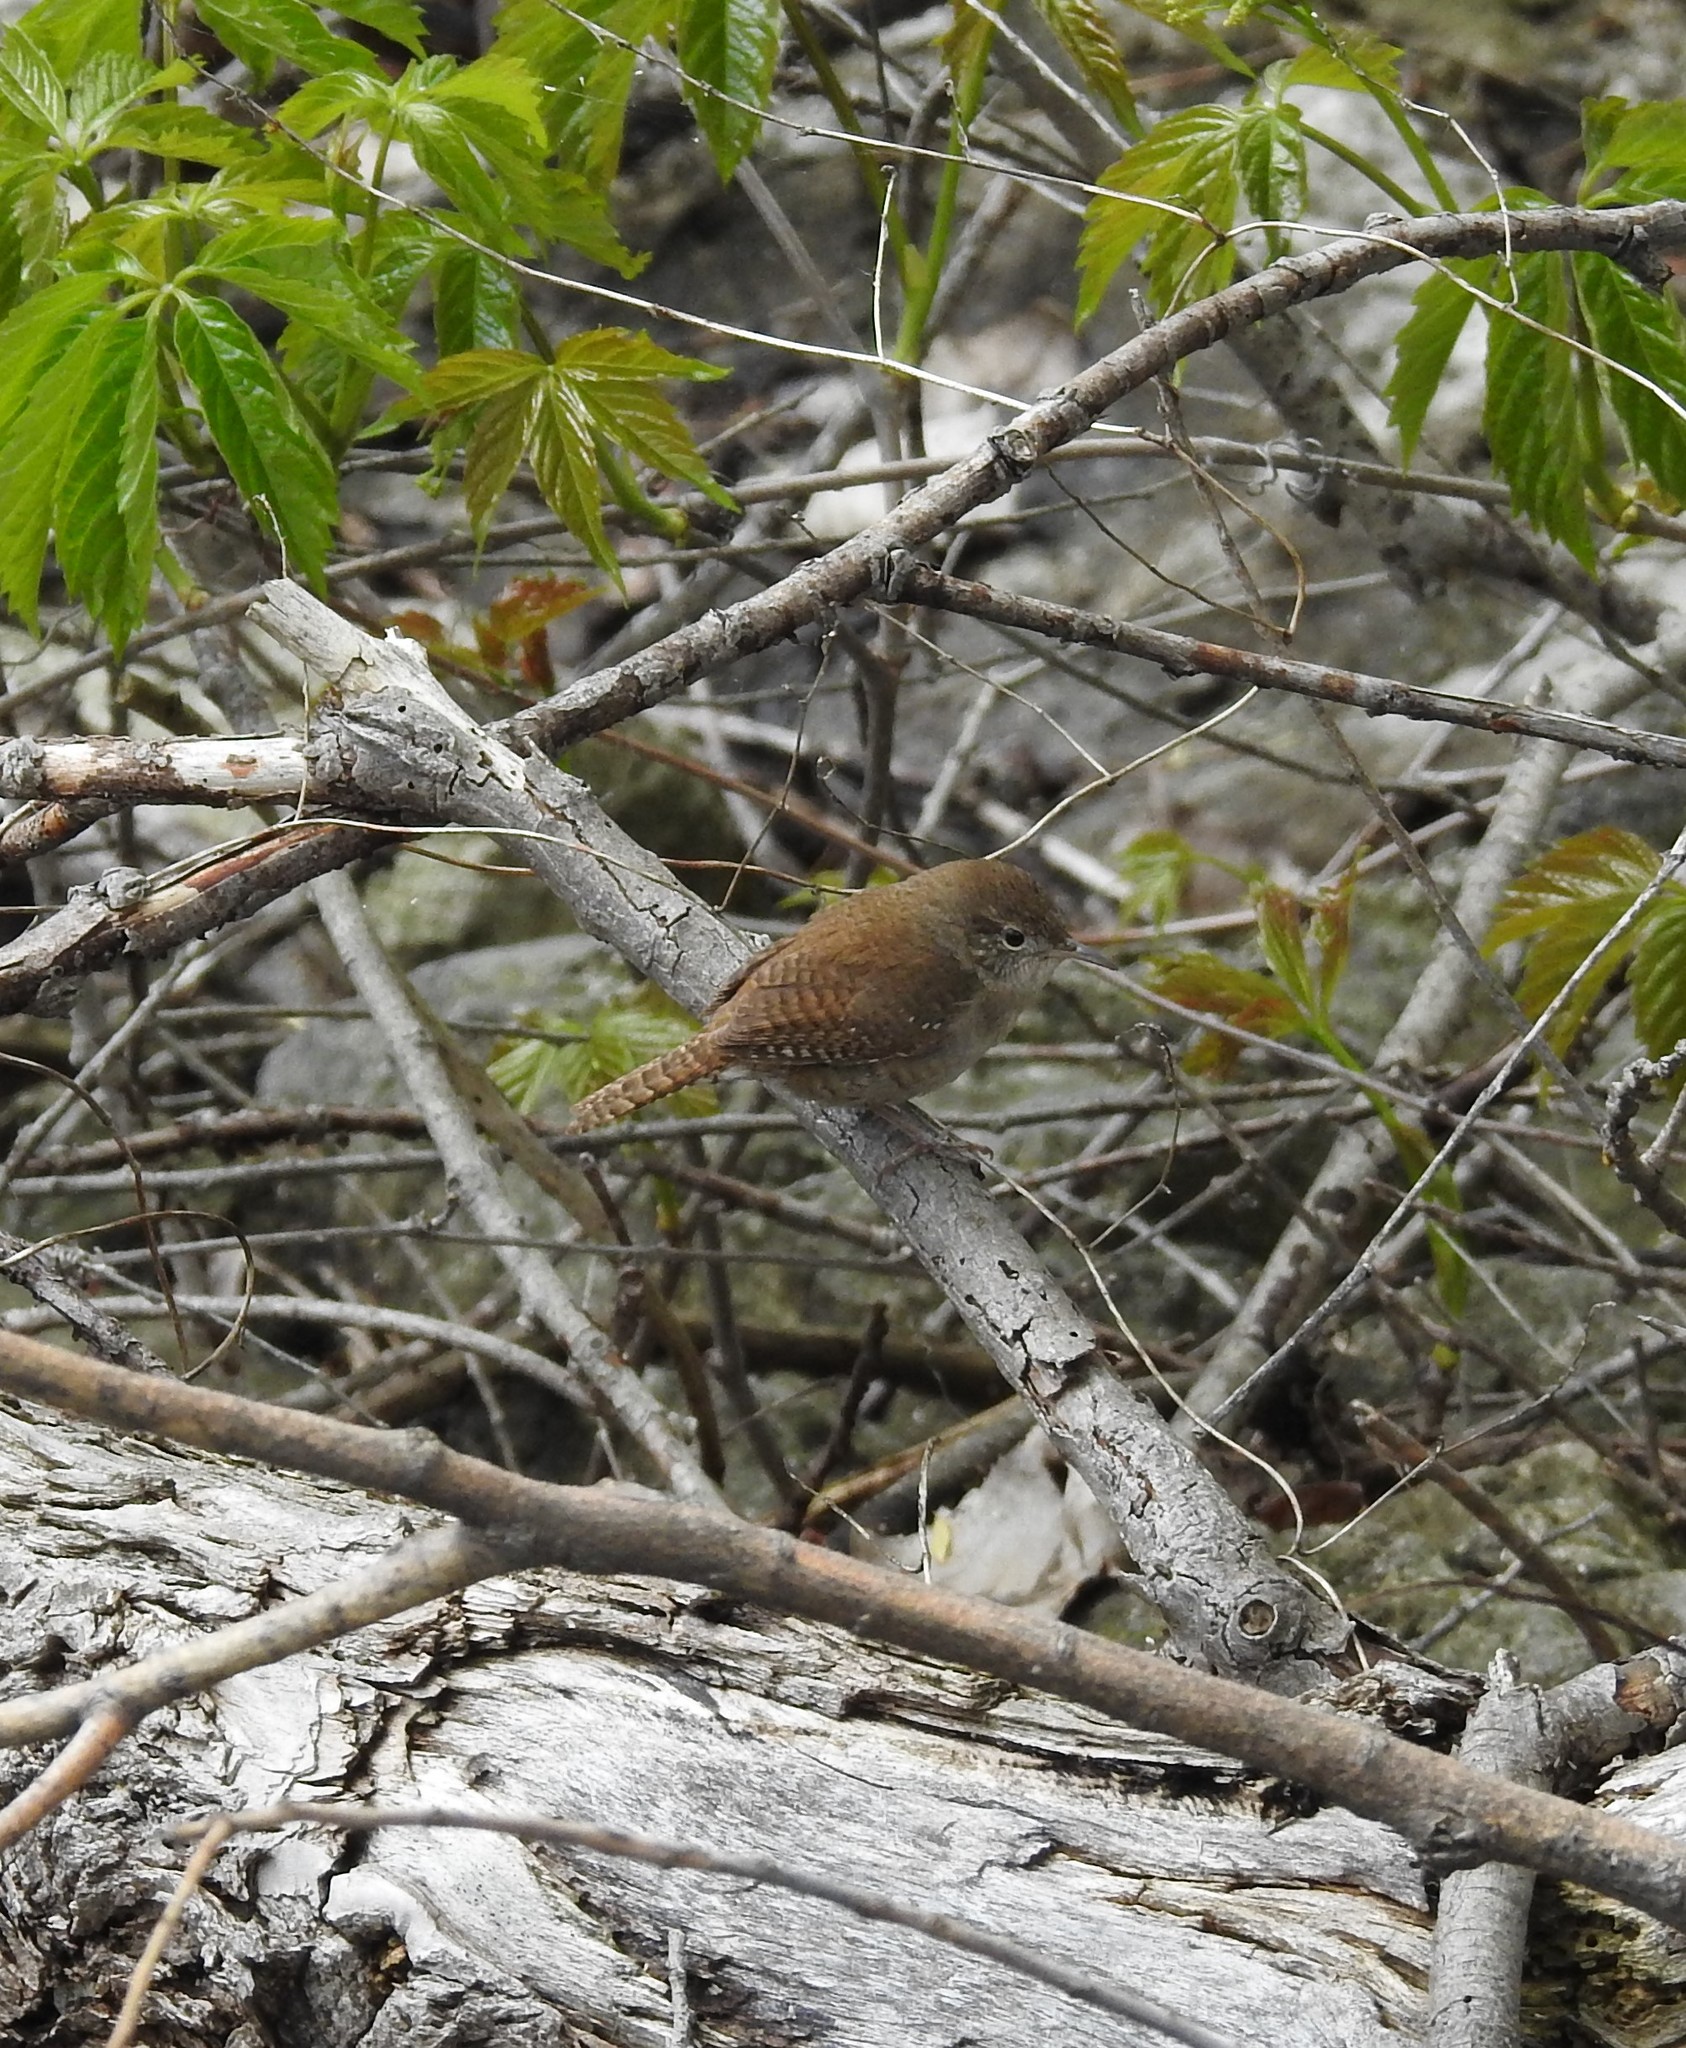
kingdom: Animalia
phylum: Chordata
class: Aves
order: Passeriformes
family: Troglodytidae
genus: Troglodytes
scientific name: Troglodytes aedon
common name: House wren
